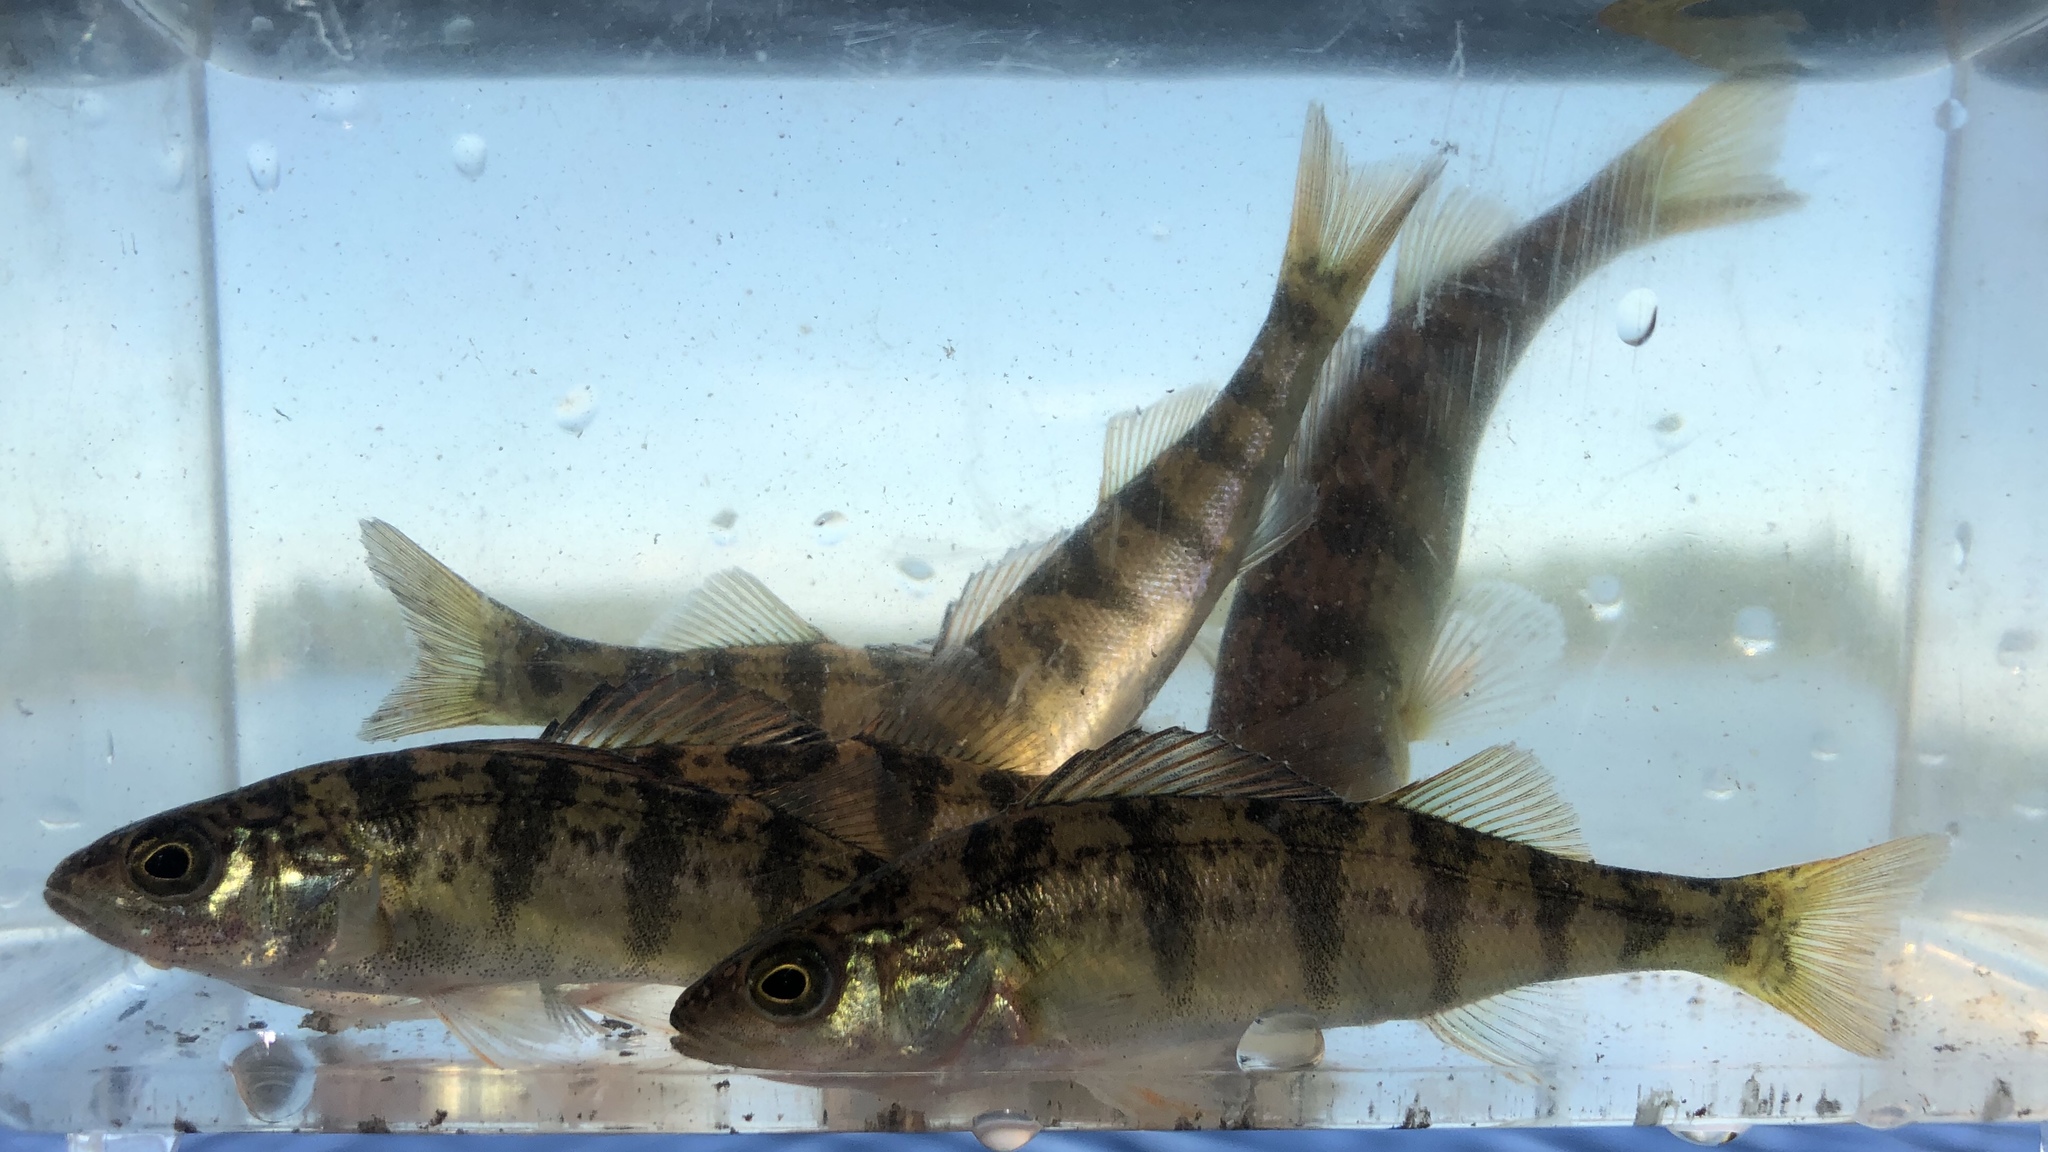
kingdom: Animalia
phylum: Chordata
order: Perciformes
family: Percidae
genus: Perca
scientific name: Perca flavescens
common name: Yellow perch
